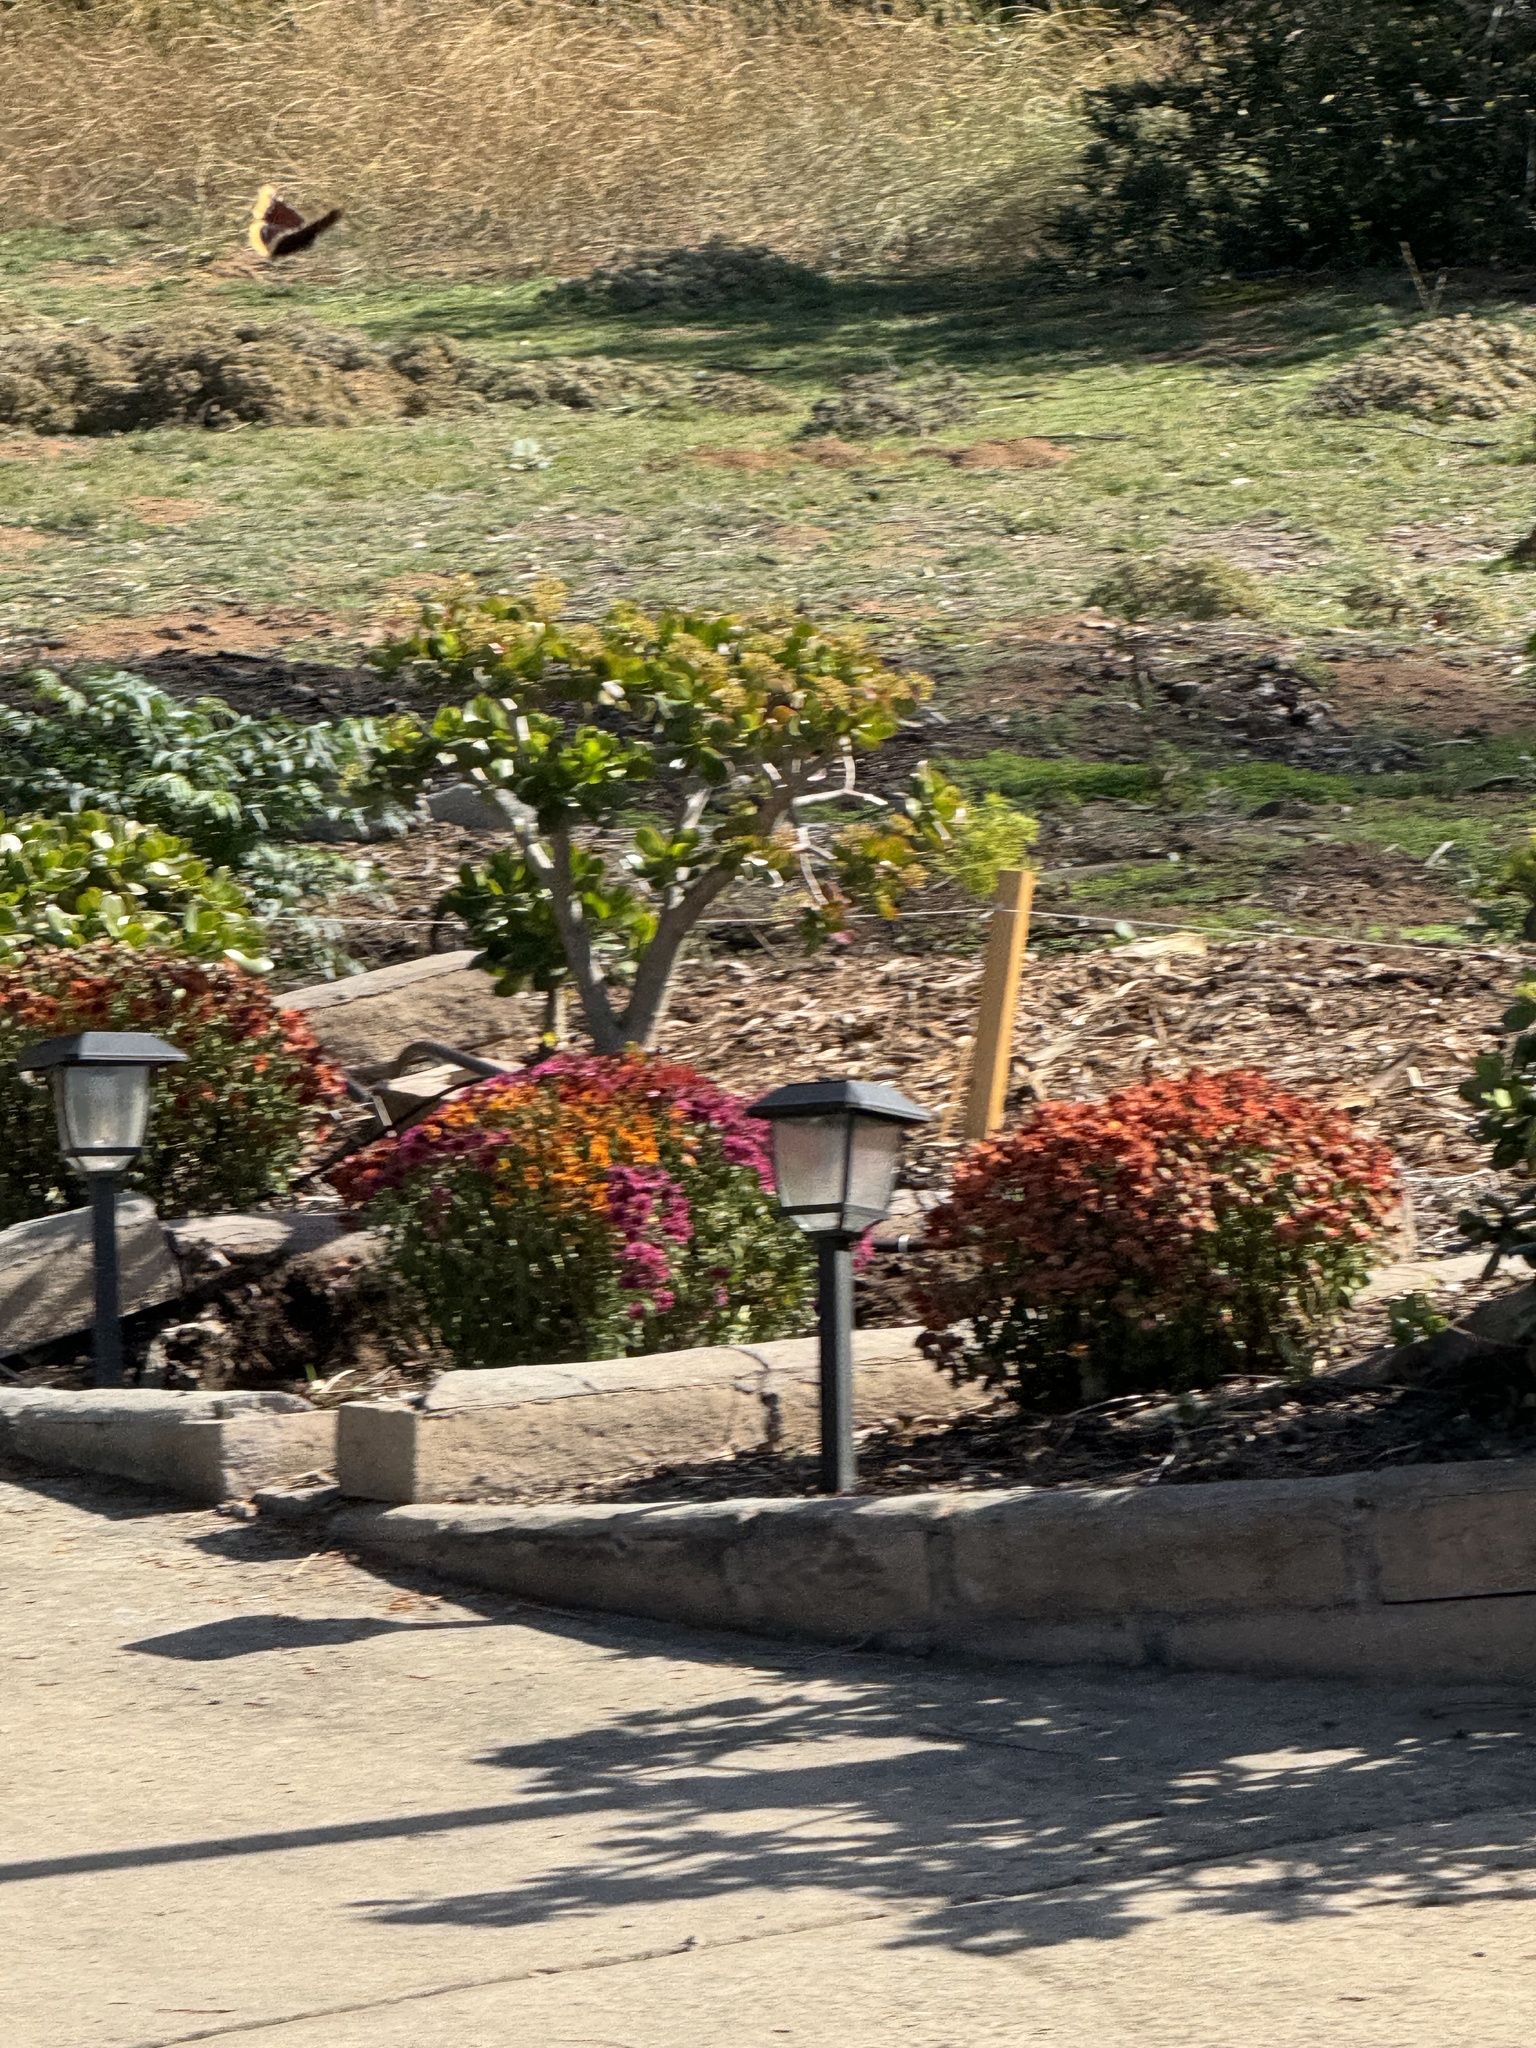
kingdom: Animalia
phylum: Arthropoda
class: Insecta
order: Lepidoptera
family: Nymphalidae
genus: Nymphalis
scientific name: Nymphalis antiopa
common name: Camberwell beauty
